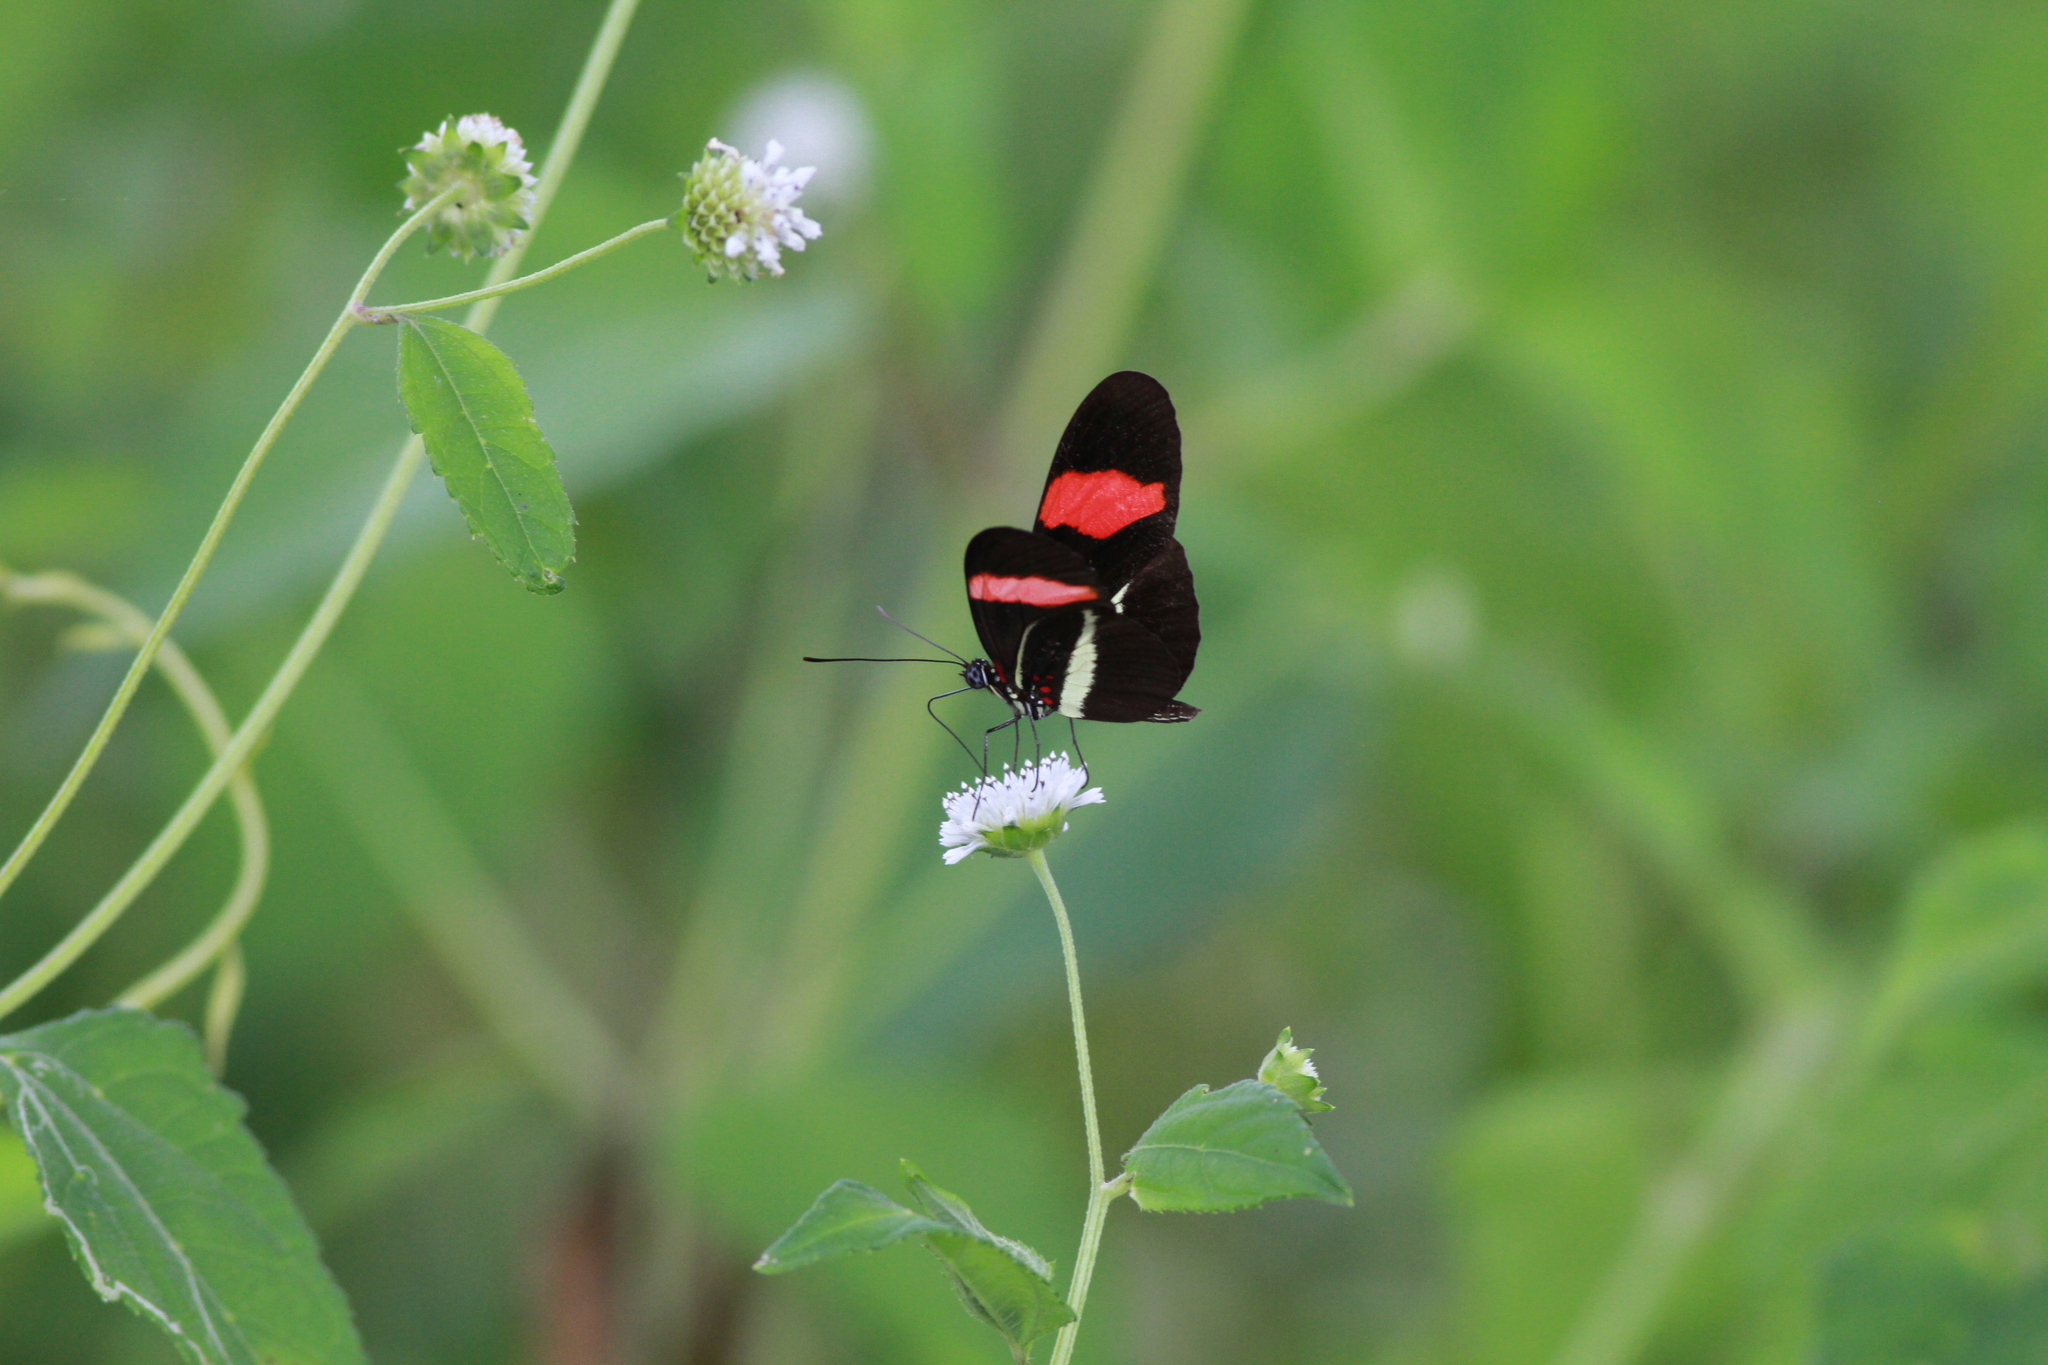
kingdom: Animalia
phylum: Arthropoda
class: Insecta
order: Lepidoptera
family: Nymphalidae
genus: Tirumala
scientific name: Tirumala petiverana
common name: Blue monarch
